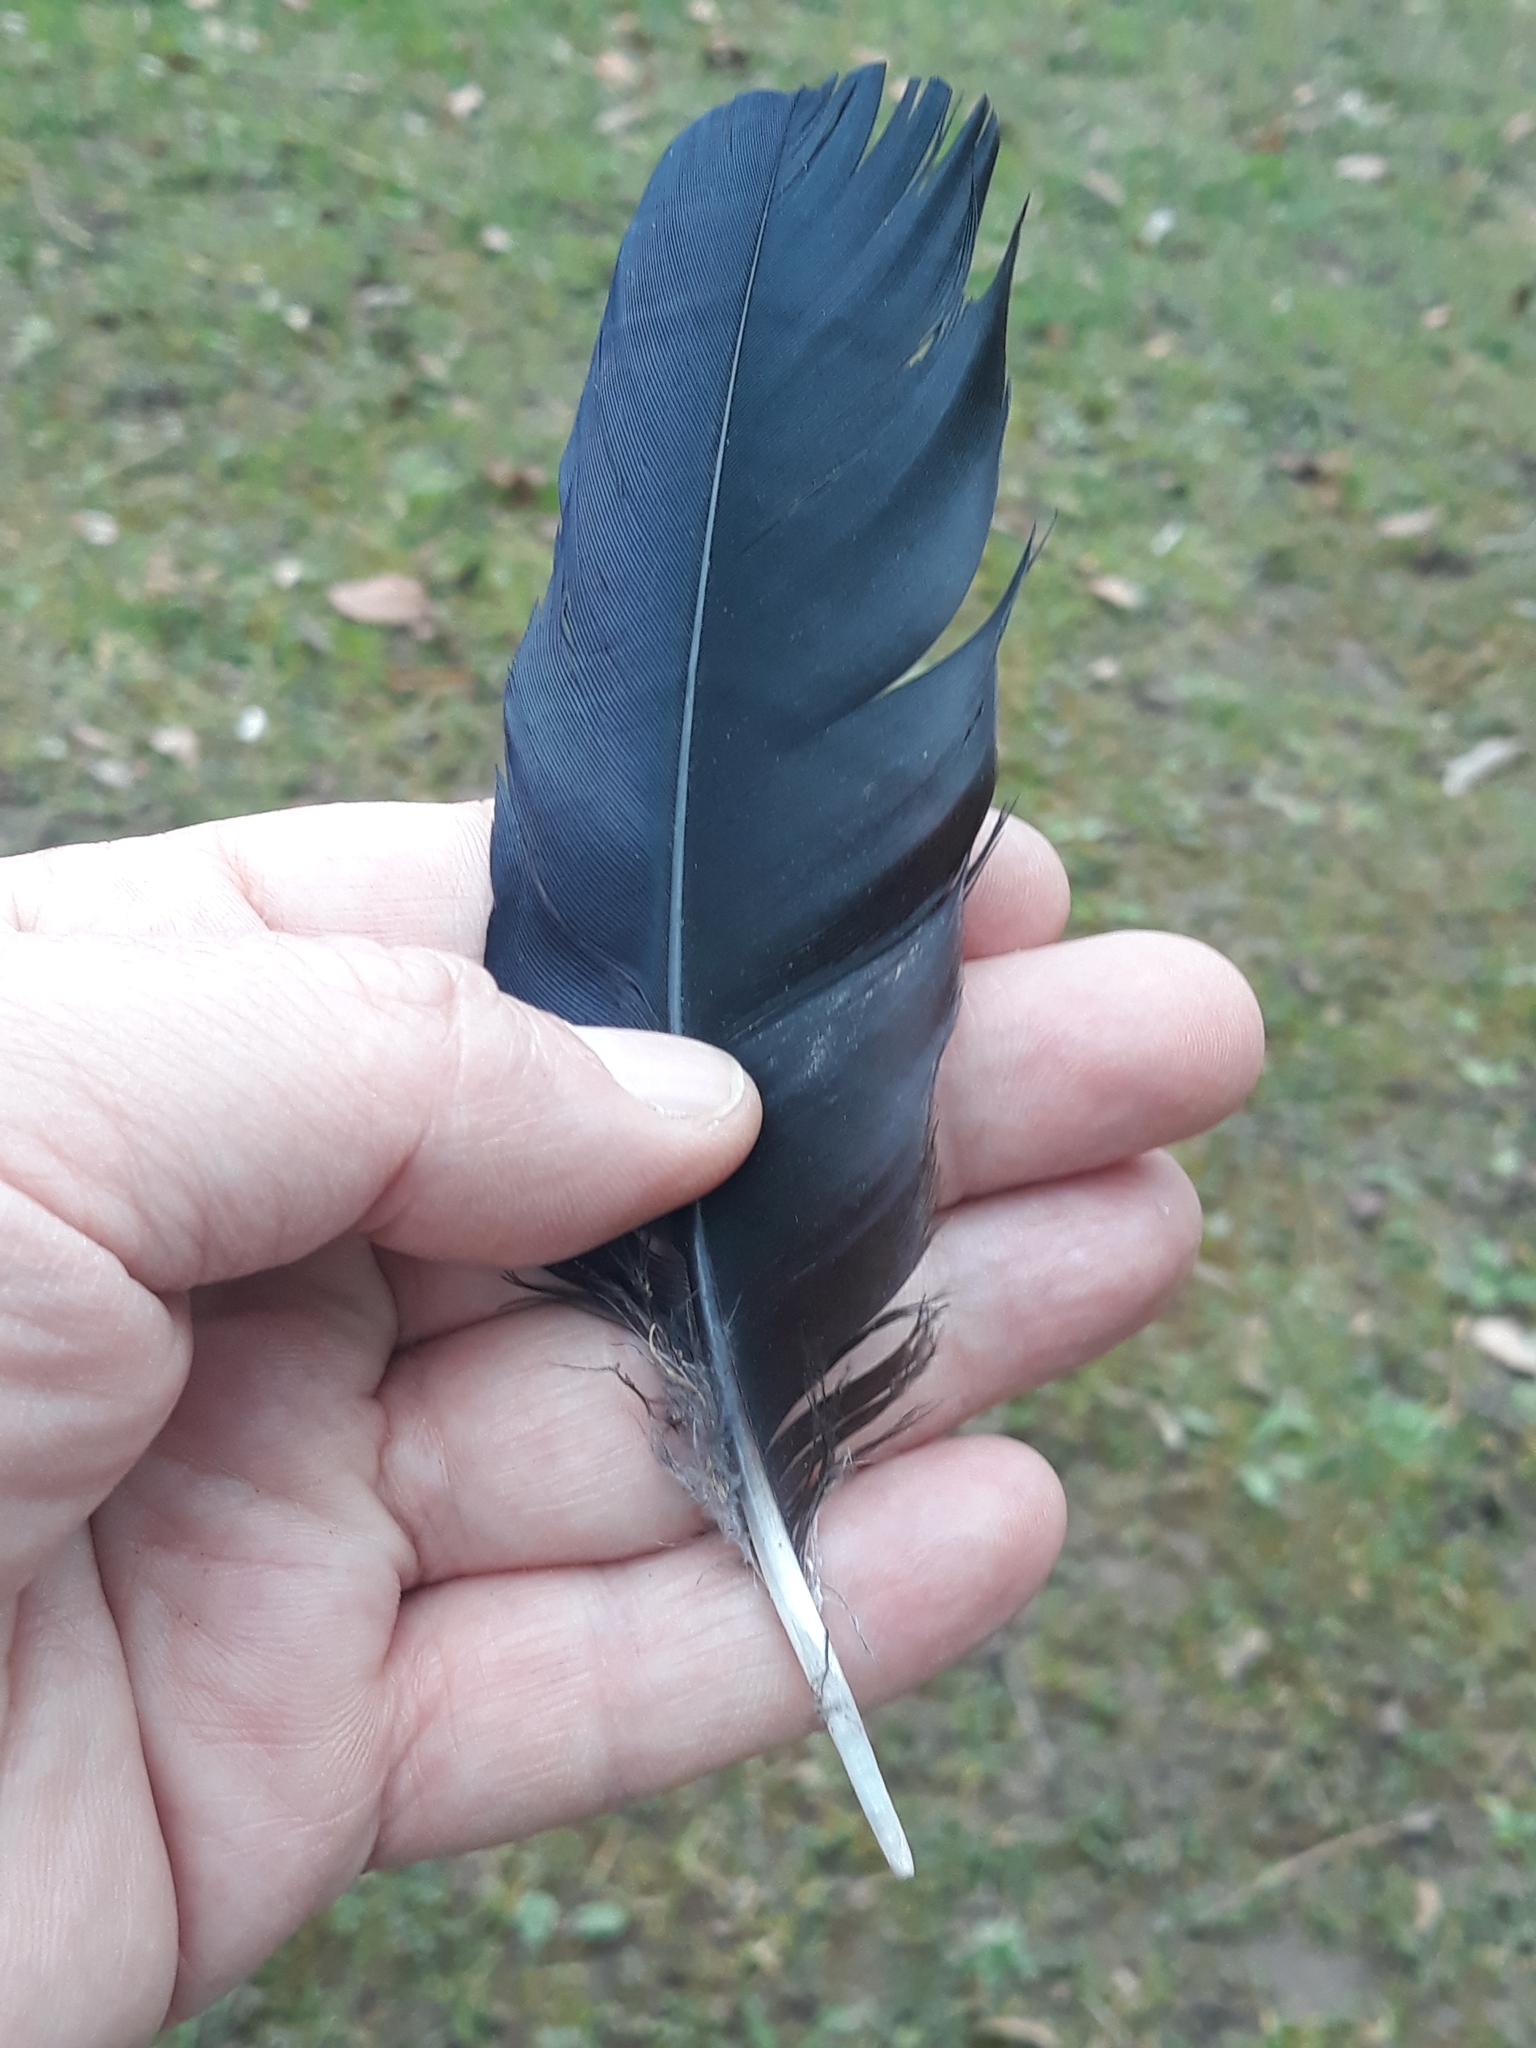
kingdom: Animalia
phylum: Chordata
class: Aves
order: Passeriformes
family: Corvidae
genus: Corvus
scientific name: Corvus corone
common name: Carrion crow
